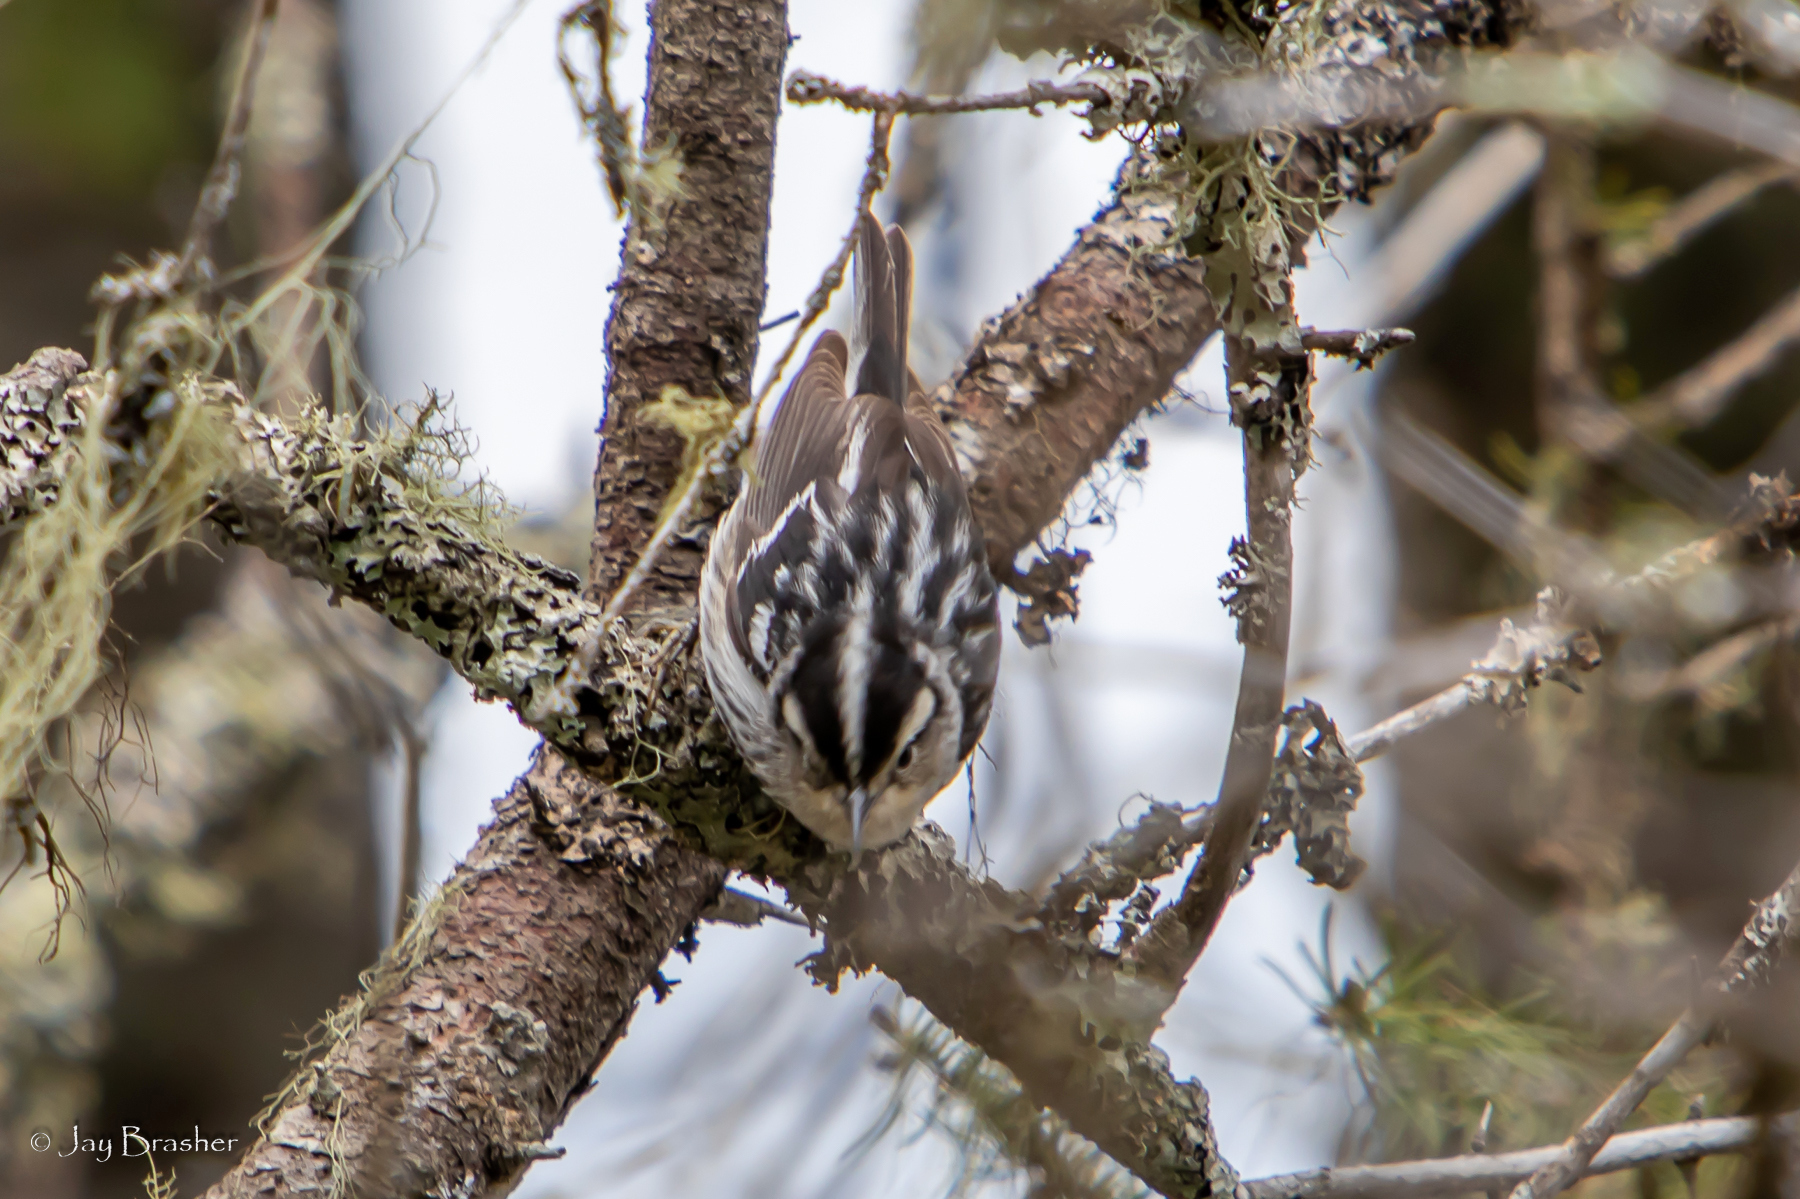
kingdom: Animalia
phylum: Chordata
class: Aves
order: Passeriformes
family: Parulidae
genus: Mniotilta
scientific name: Mniotilta varia
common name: Black-and-white warbler
